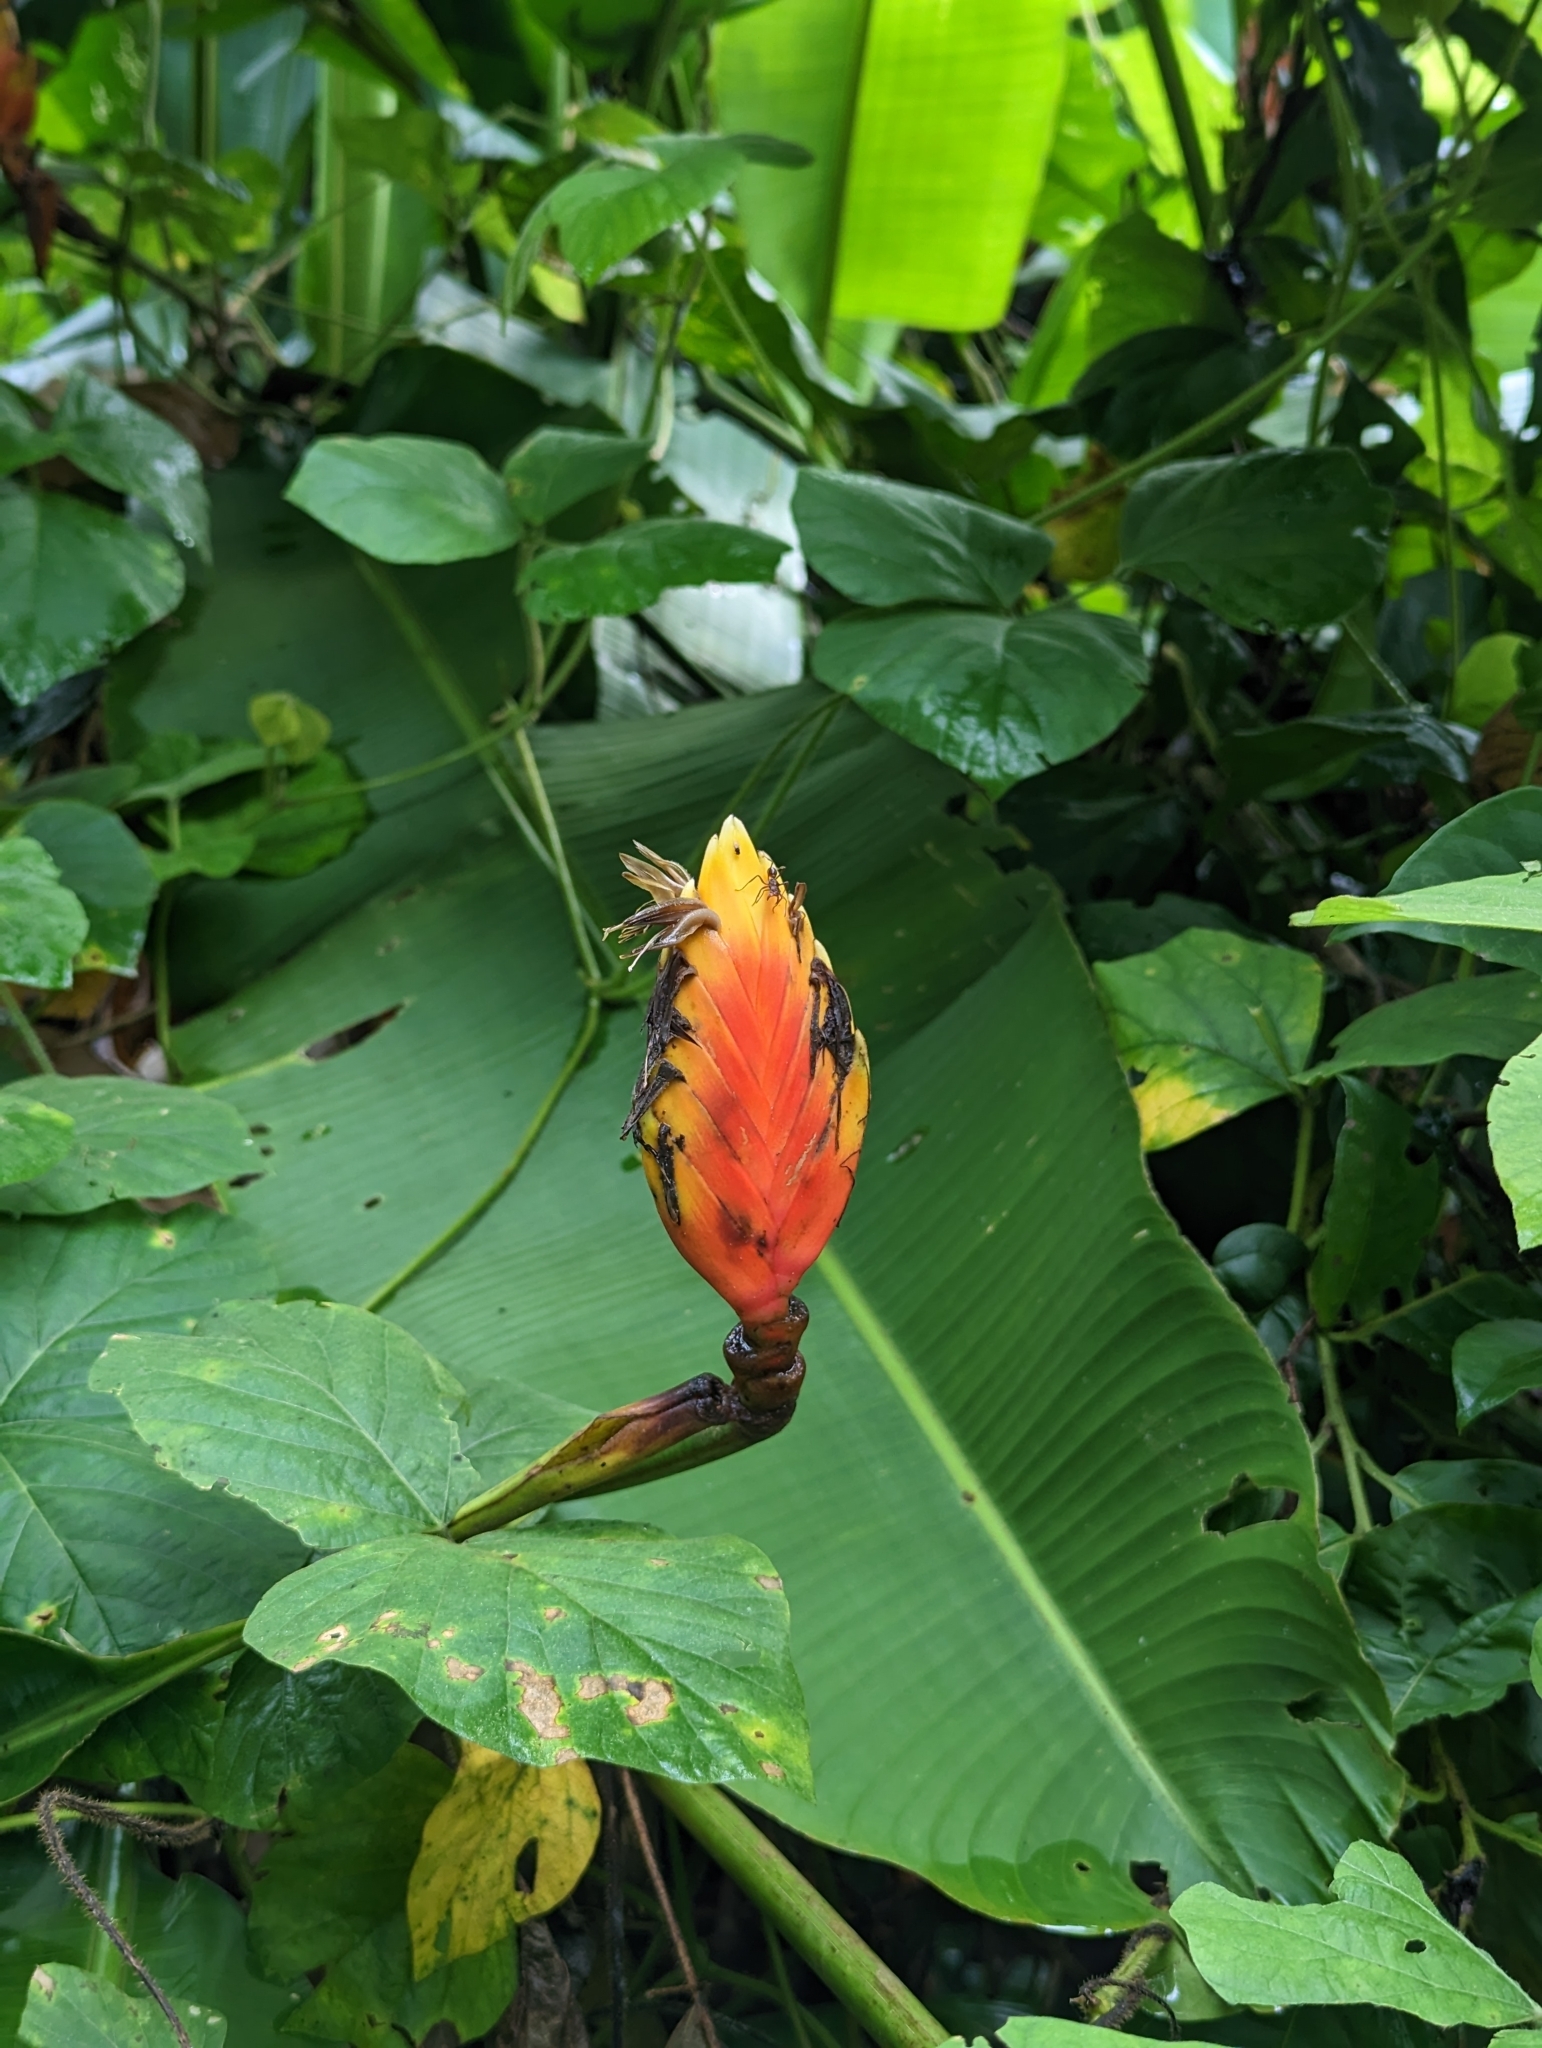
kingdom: Plantae
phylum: Tracheophyta
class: Liliopsida
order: Zingiberales
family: Heliconiaceae
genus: Heliconia
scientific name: Heliconia episcopalis
